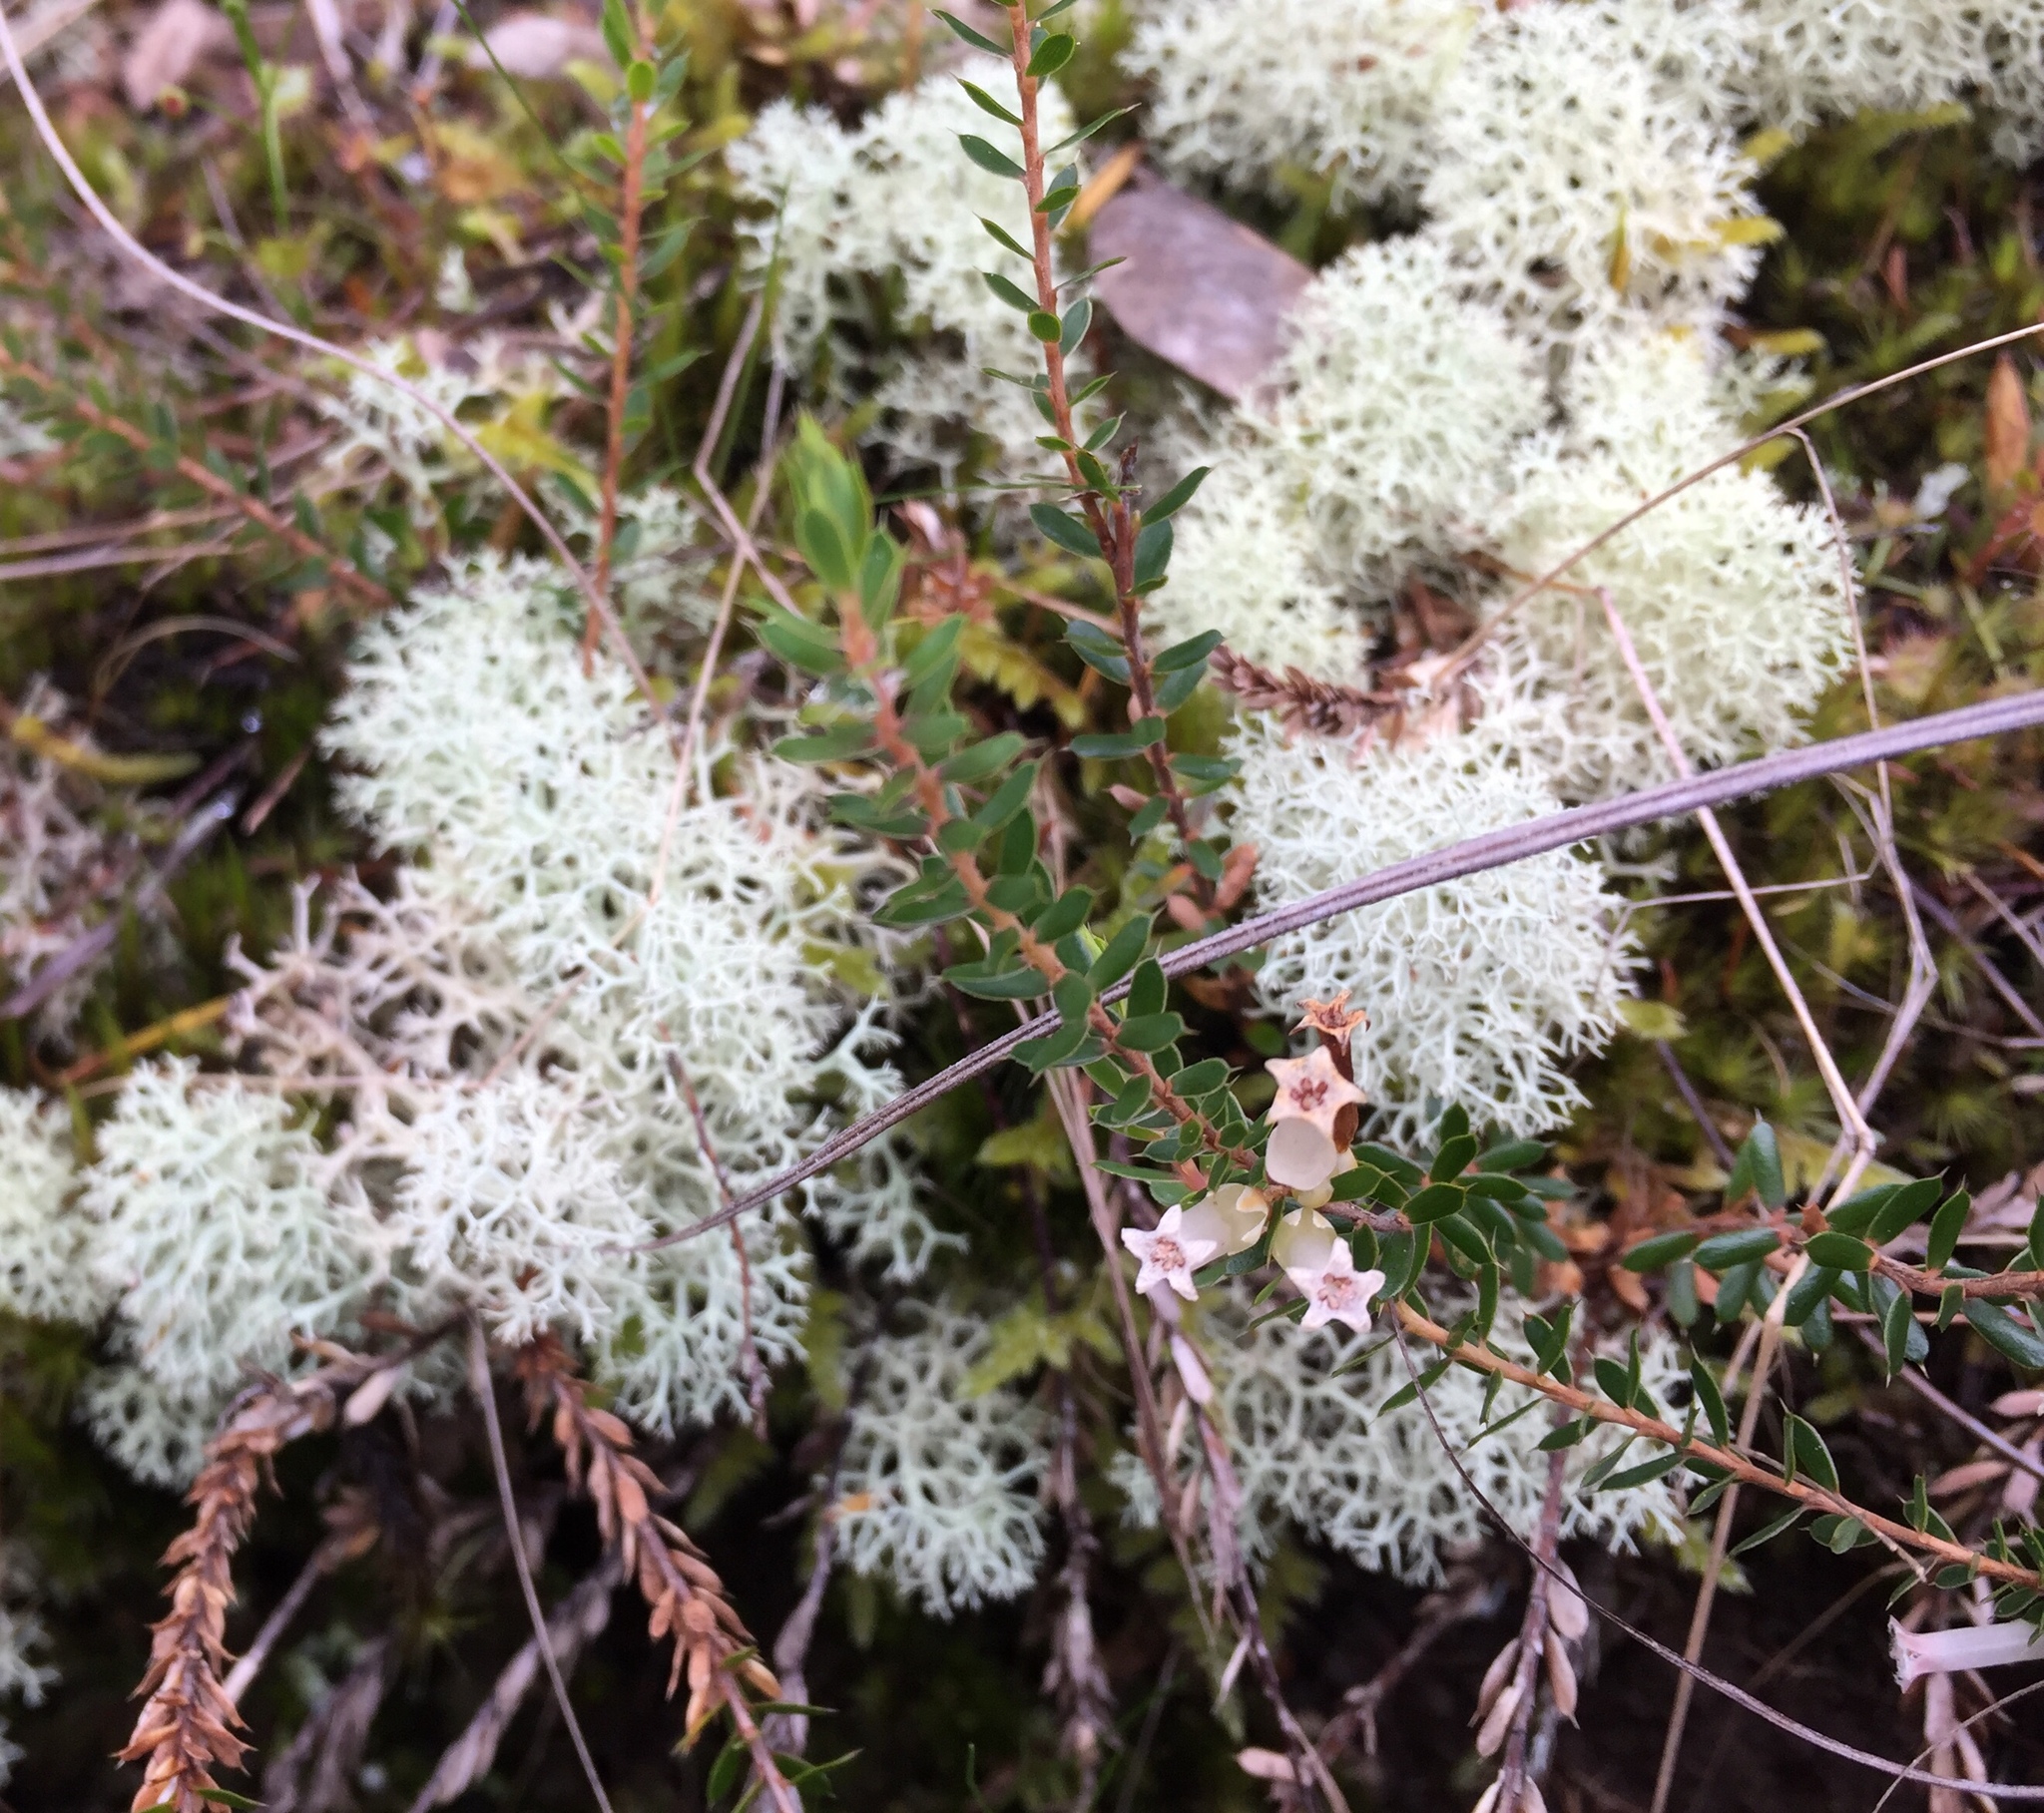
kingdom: Plantae
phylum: Tracheophyta
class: Magnoliopsida
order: Ericales
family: Ericaceae
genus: Styphelia
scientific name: Styphelia nesophila
